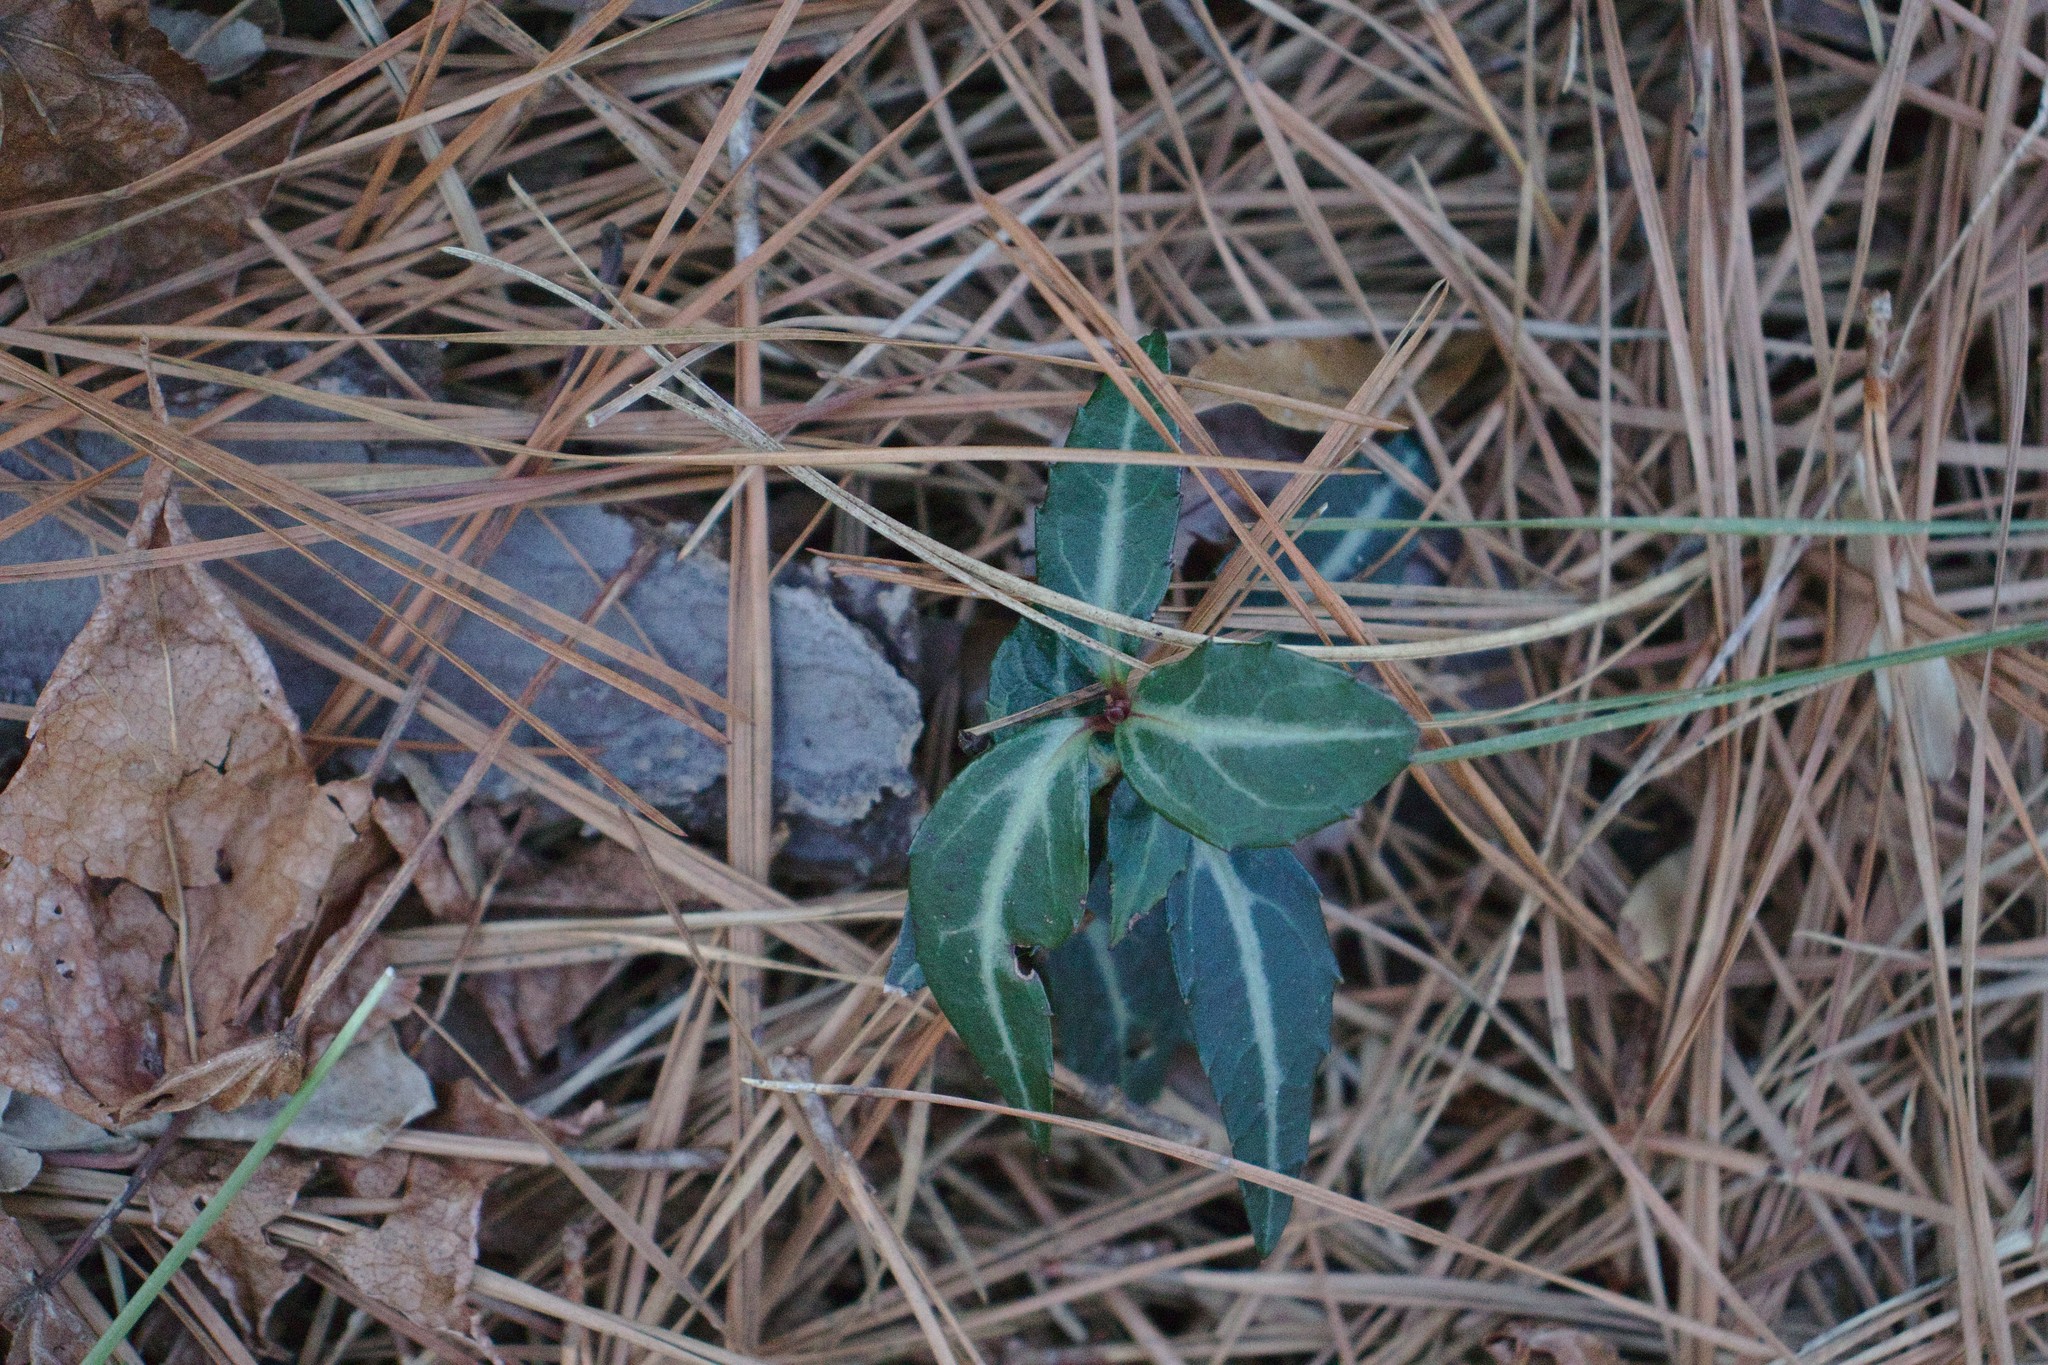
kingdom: Plantae
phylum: Tracheophyta
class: Magnoliopsida
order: Ericales
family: Ericaceae
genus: Chimaphila
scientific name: Chimaphila maculata
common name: Spotted pipsissewa
